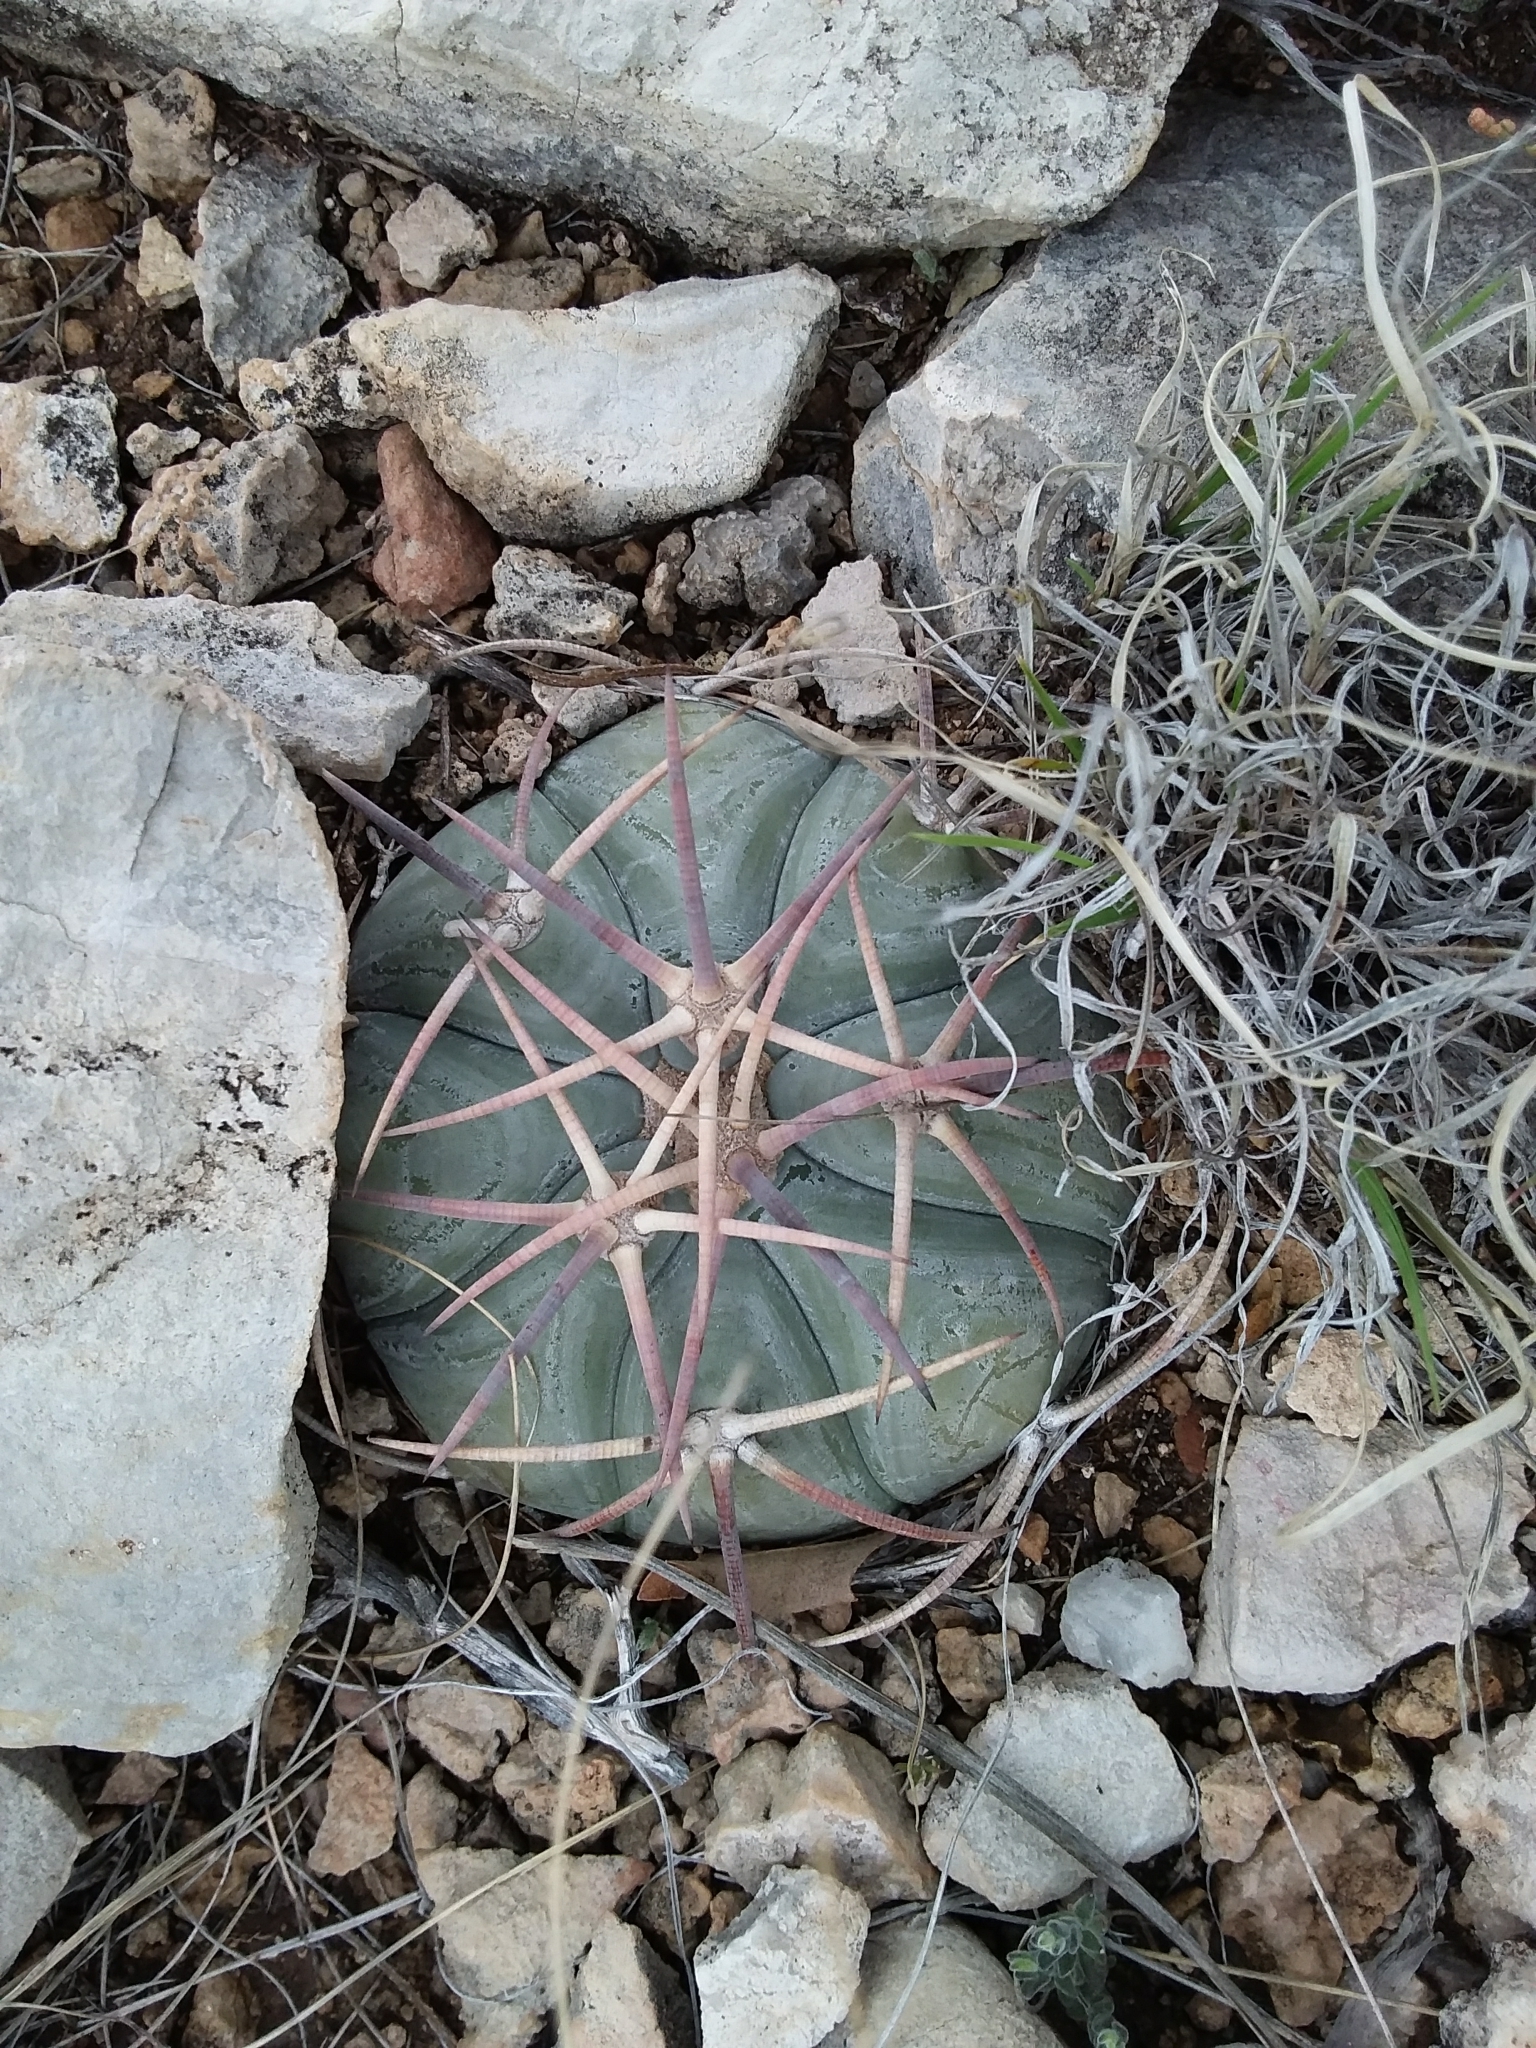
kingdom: Plantae
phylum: Tracheophyta
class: Magnoliopsida
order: Caryophyllales
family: Cactaceae
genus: Echinocactus
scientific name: Echinocactus horizonthalonius
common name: Devilshead
